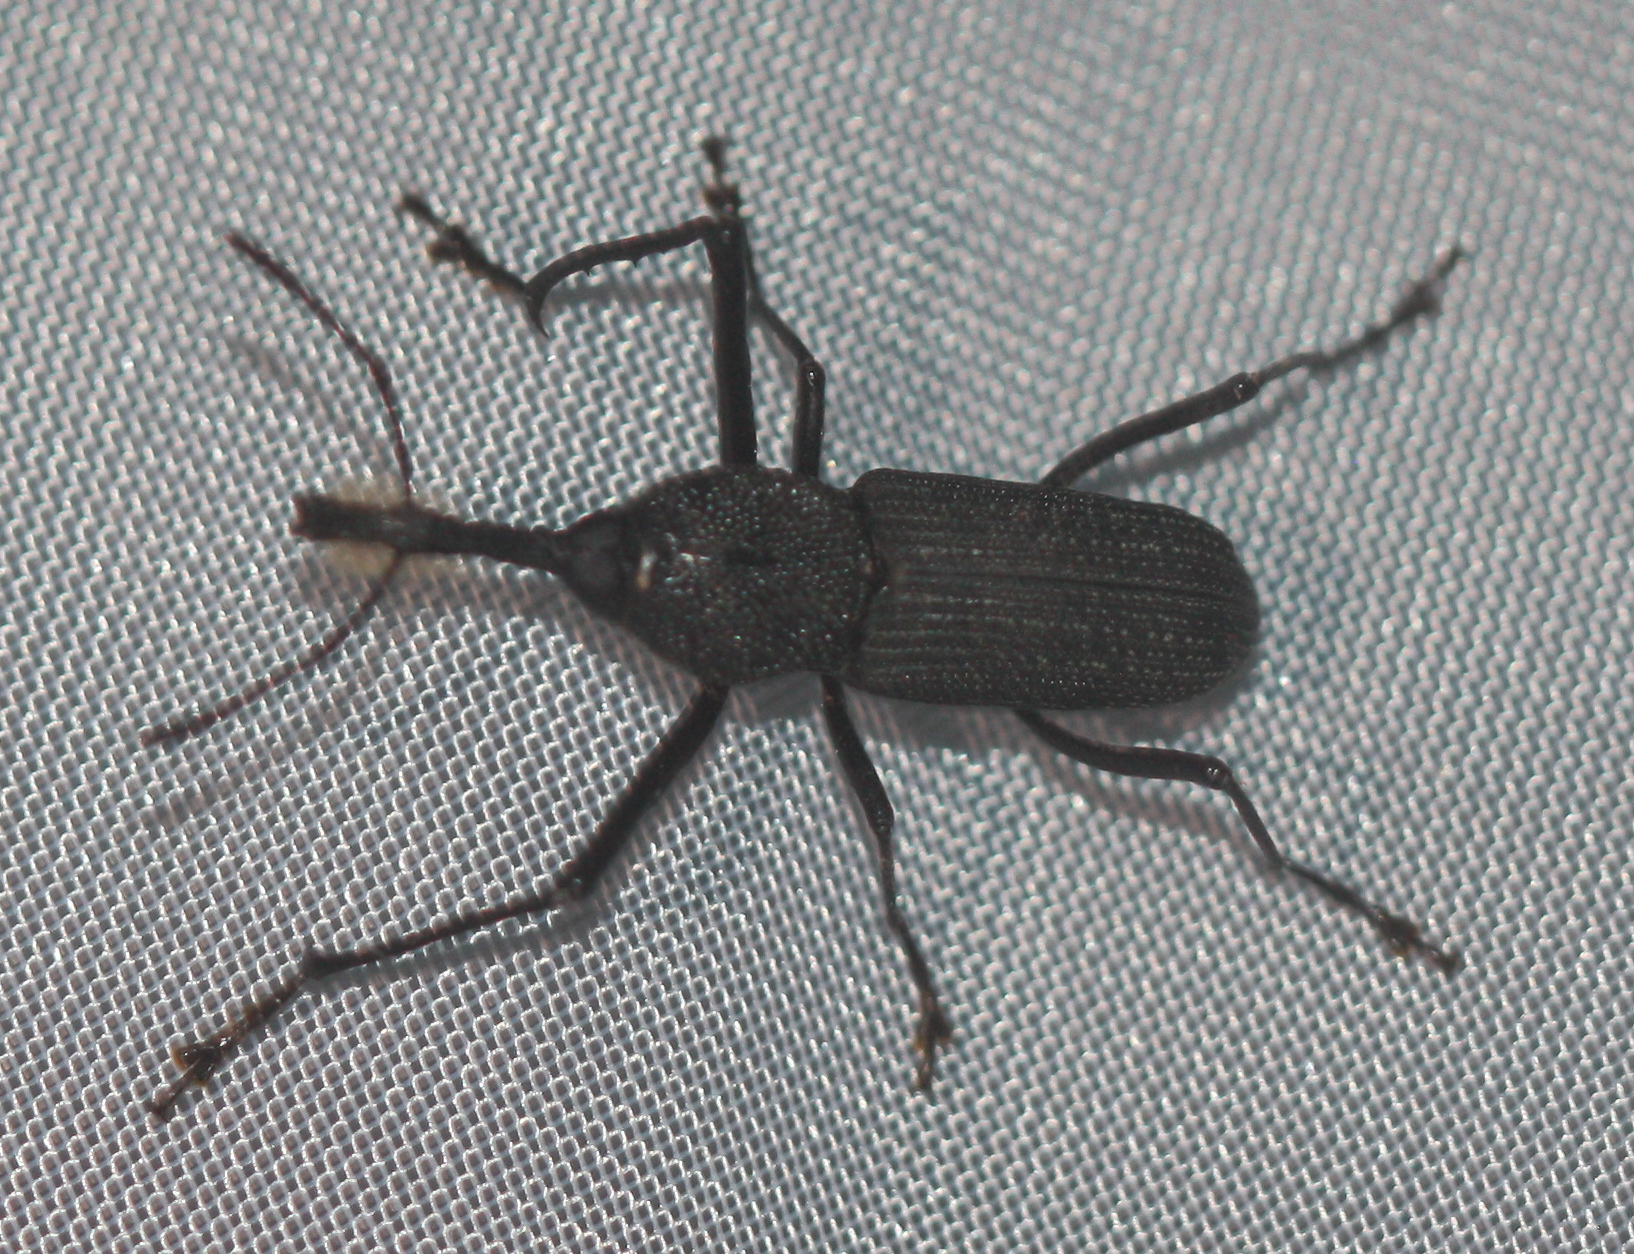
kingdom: Animalia
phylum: Arthropoda
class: Insecta
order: Coleoptera
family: Dryophthoridae
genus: Rhinostomus
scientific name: Rhinostomus barbirostris
